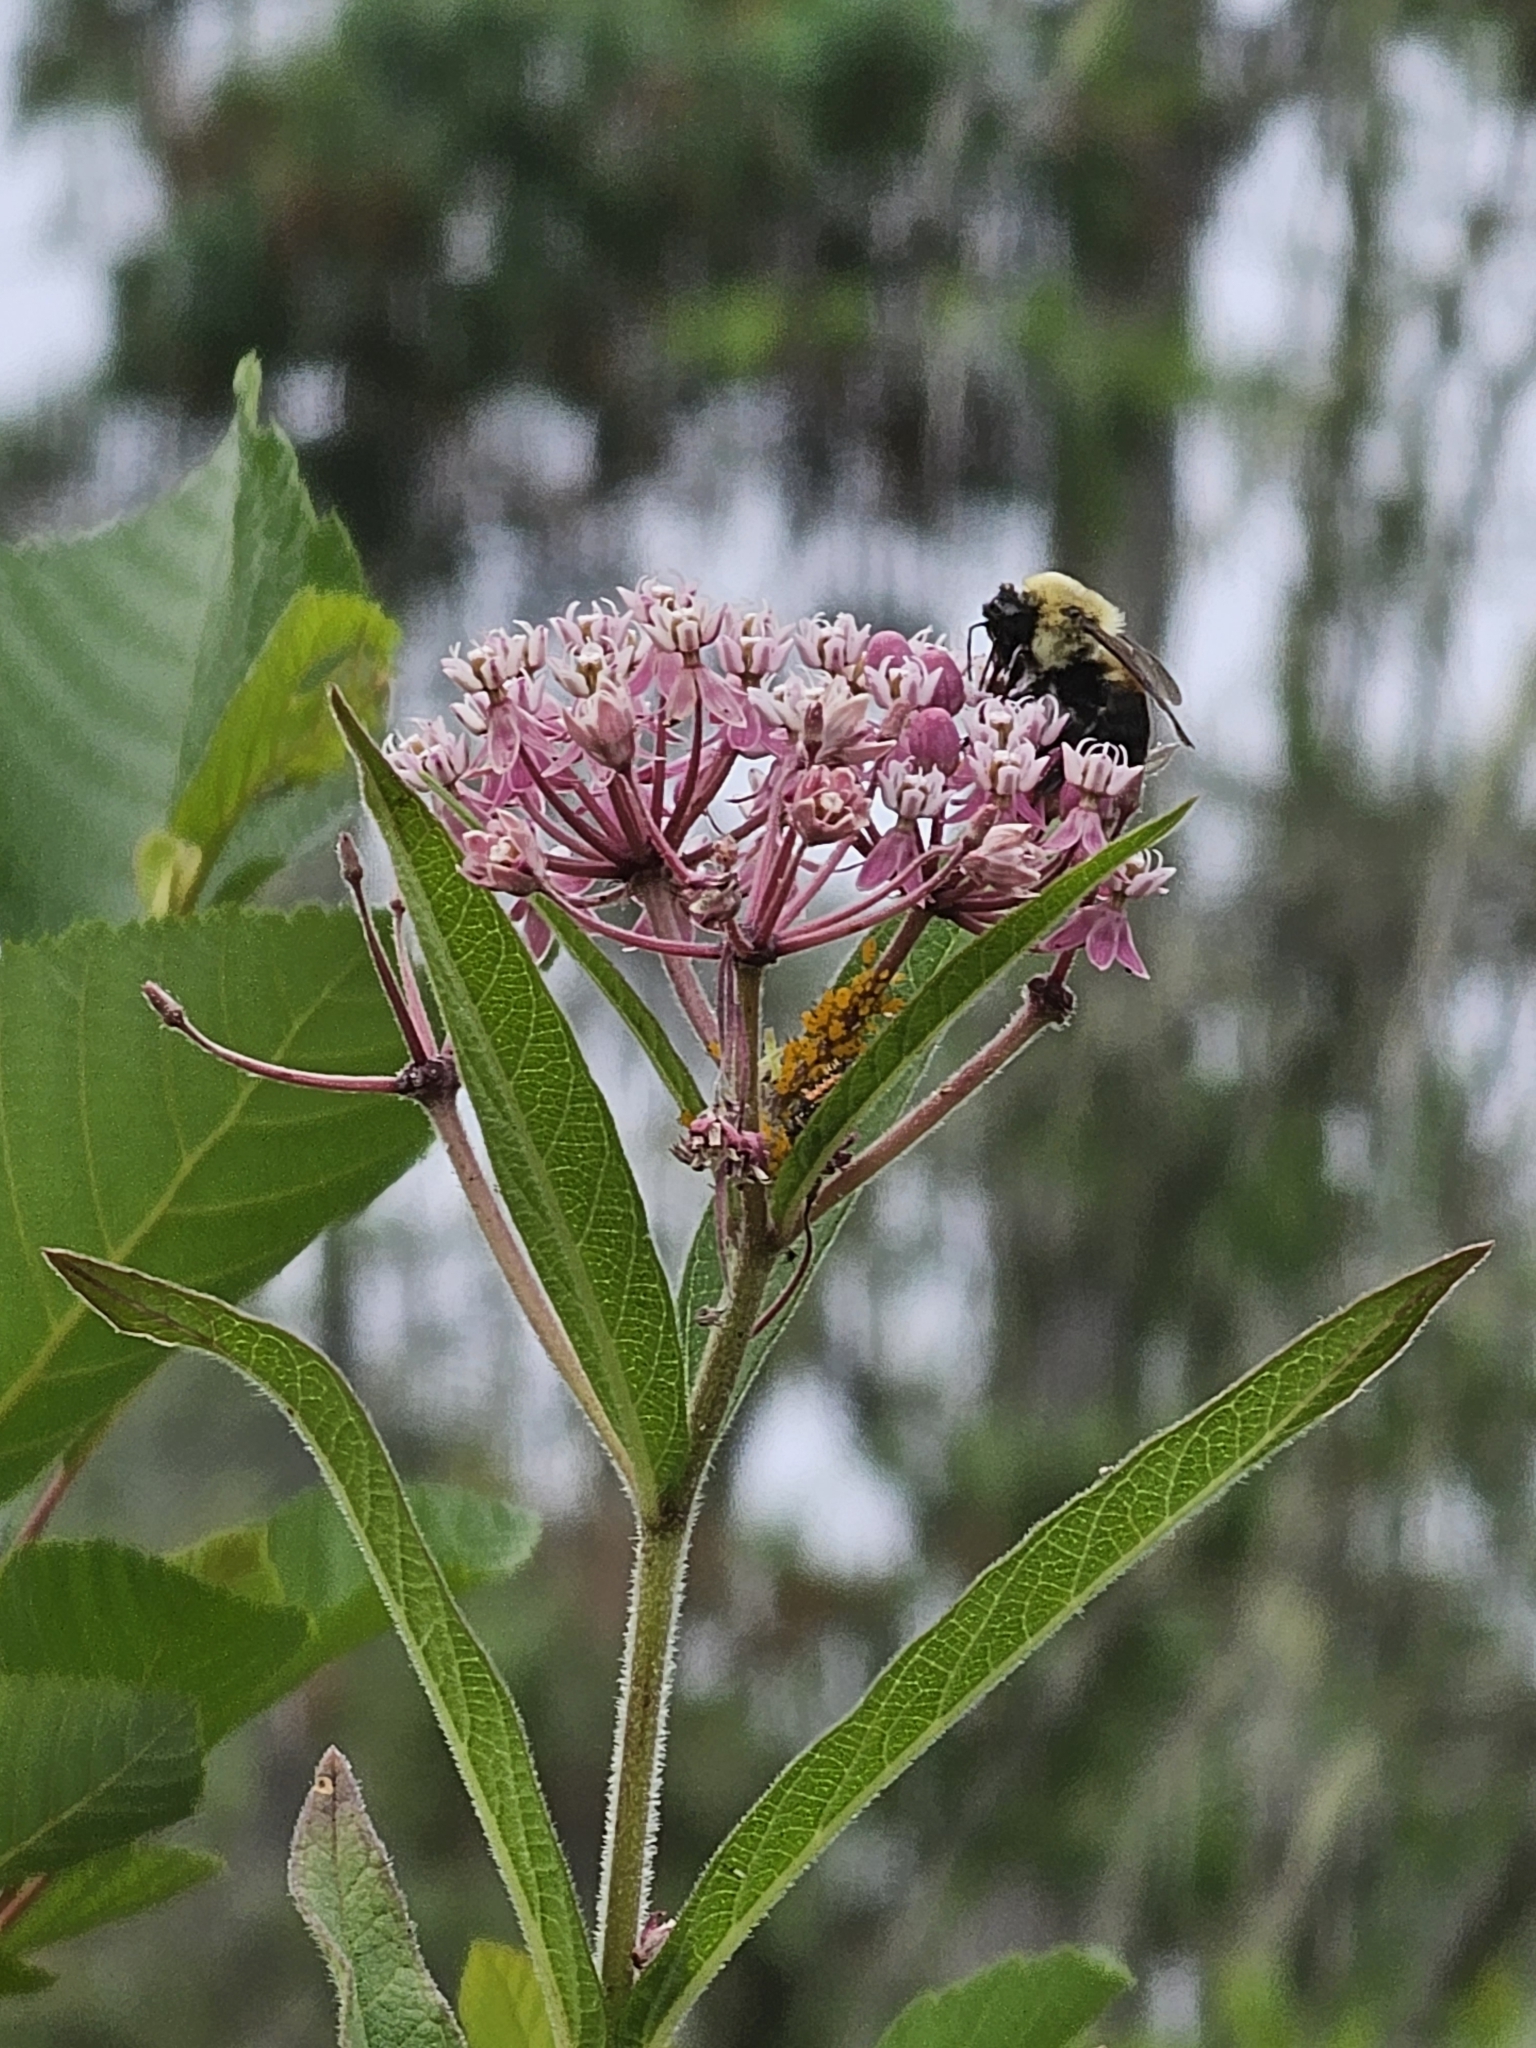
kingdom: Animalia
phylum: Arthropoda
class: Insecta
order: Hymenoptera
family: Apidae
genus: Bombus
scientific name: Bombus griseocollis
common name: Brown-belted bumble bee
